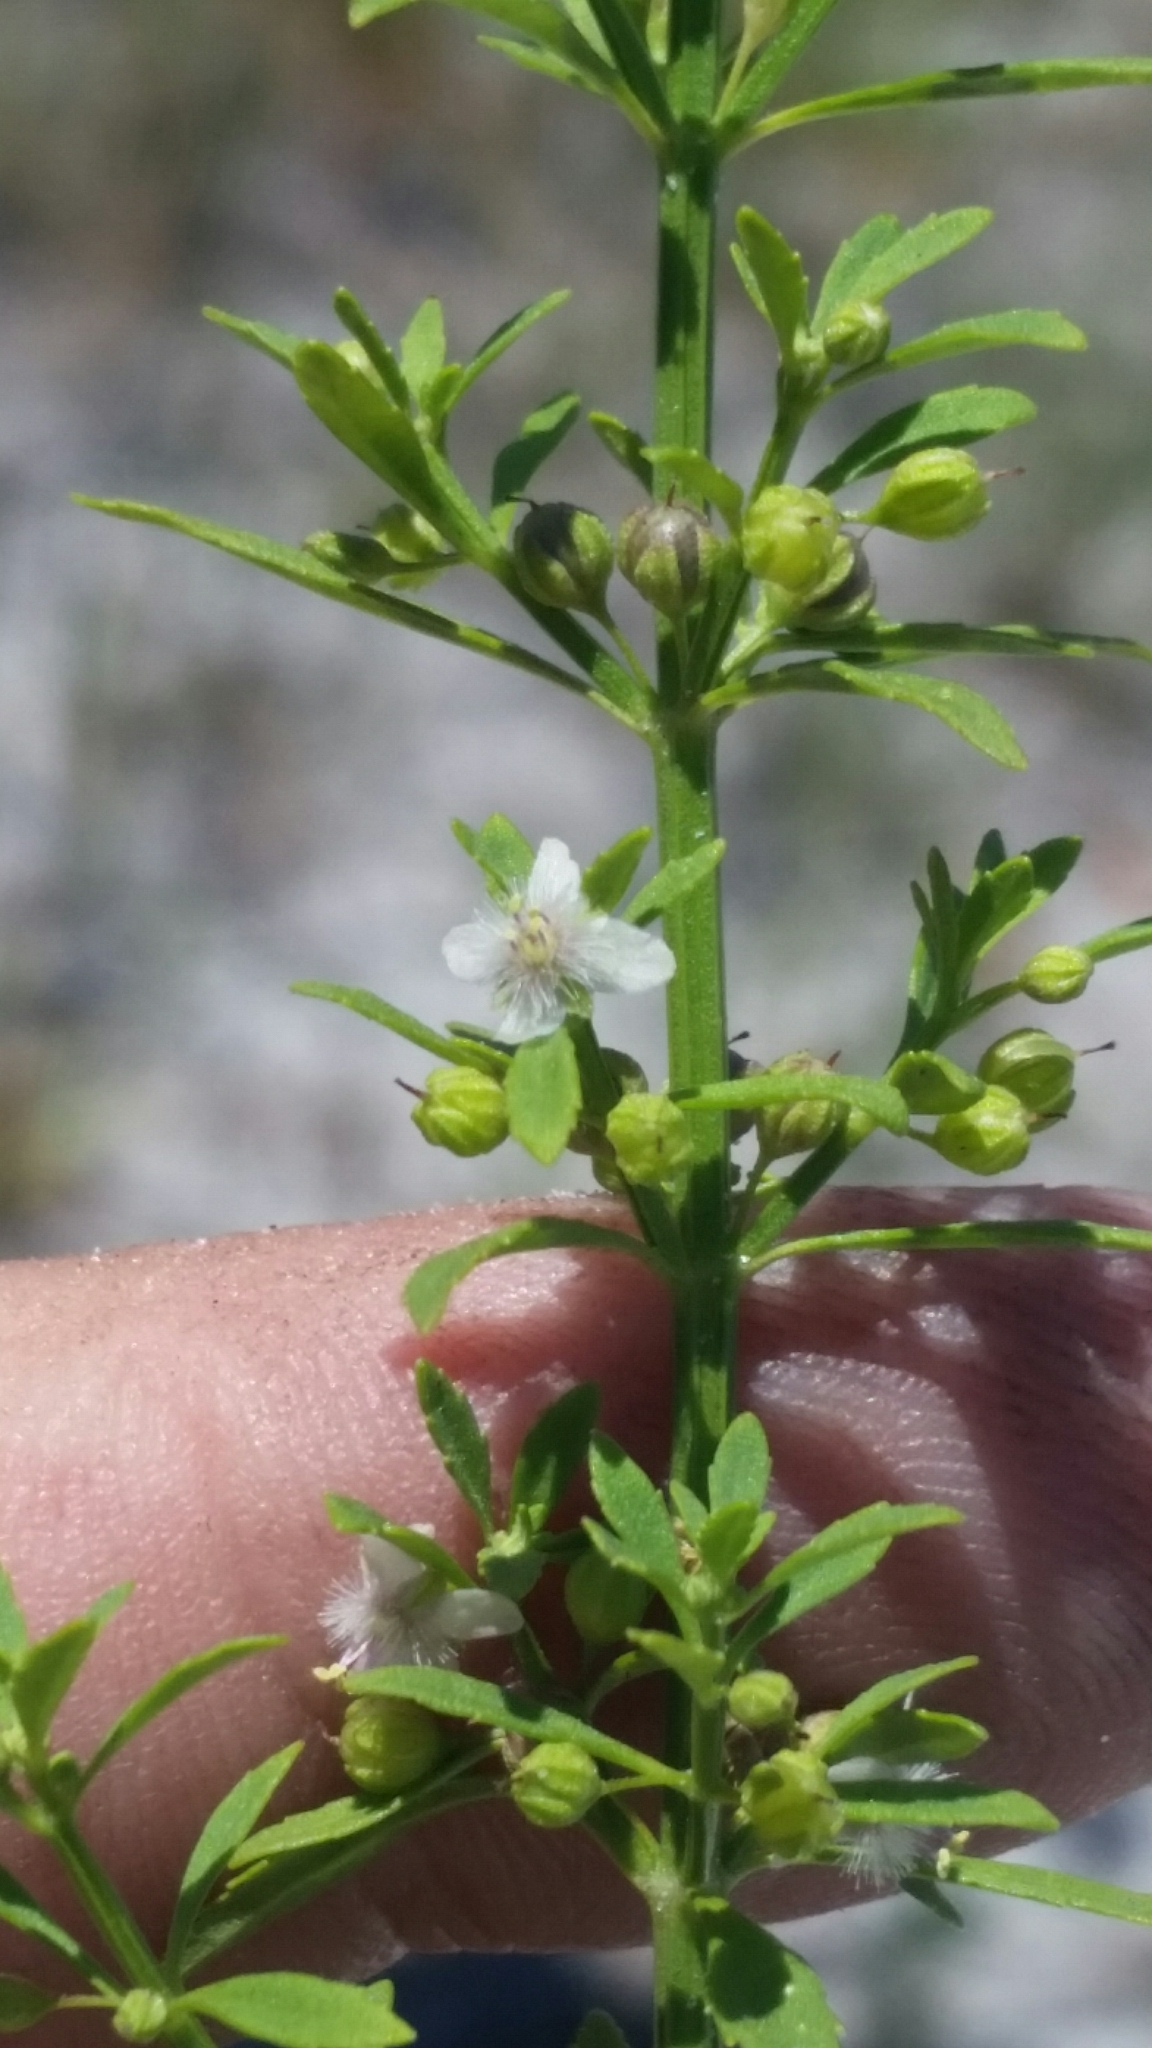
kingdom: Plantae
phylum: Tracheophyta
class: Magnoliopsida
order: Lamiales
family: Plantaginaceae
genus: Scoparia
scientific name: Scoparia dulcis
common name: Scoparia-weed
